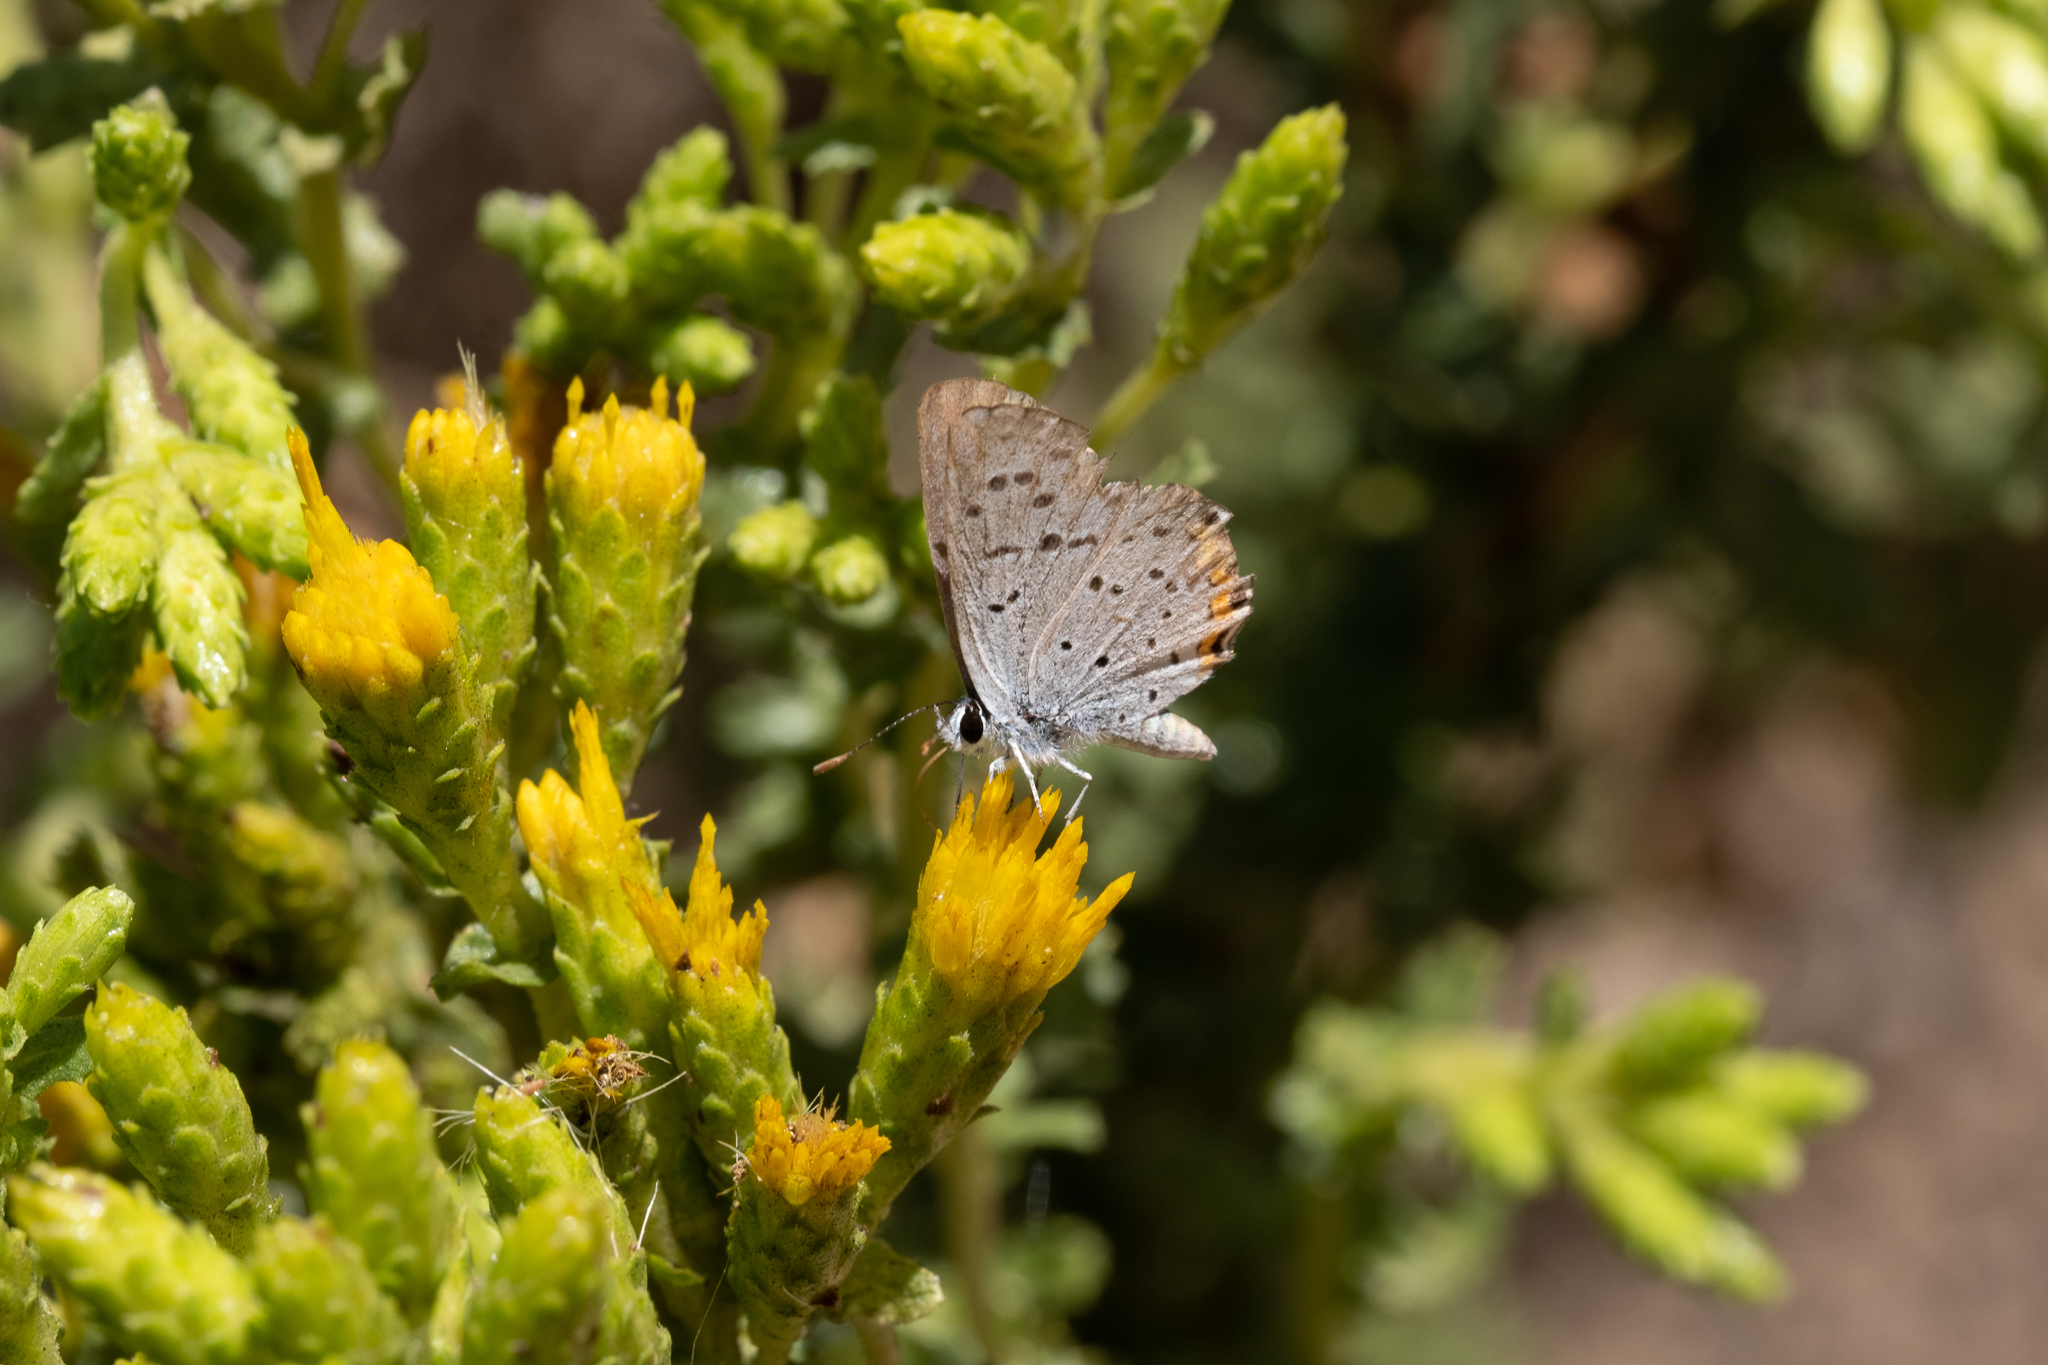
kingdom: Animalia
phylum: Arthropoda
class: Insecta
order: Lepidoptera
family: Lycaenidae
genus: Icaricia
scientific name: Icaricia acmon
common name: Acmon blue
